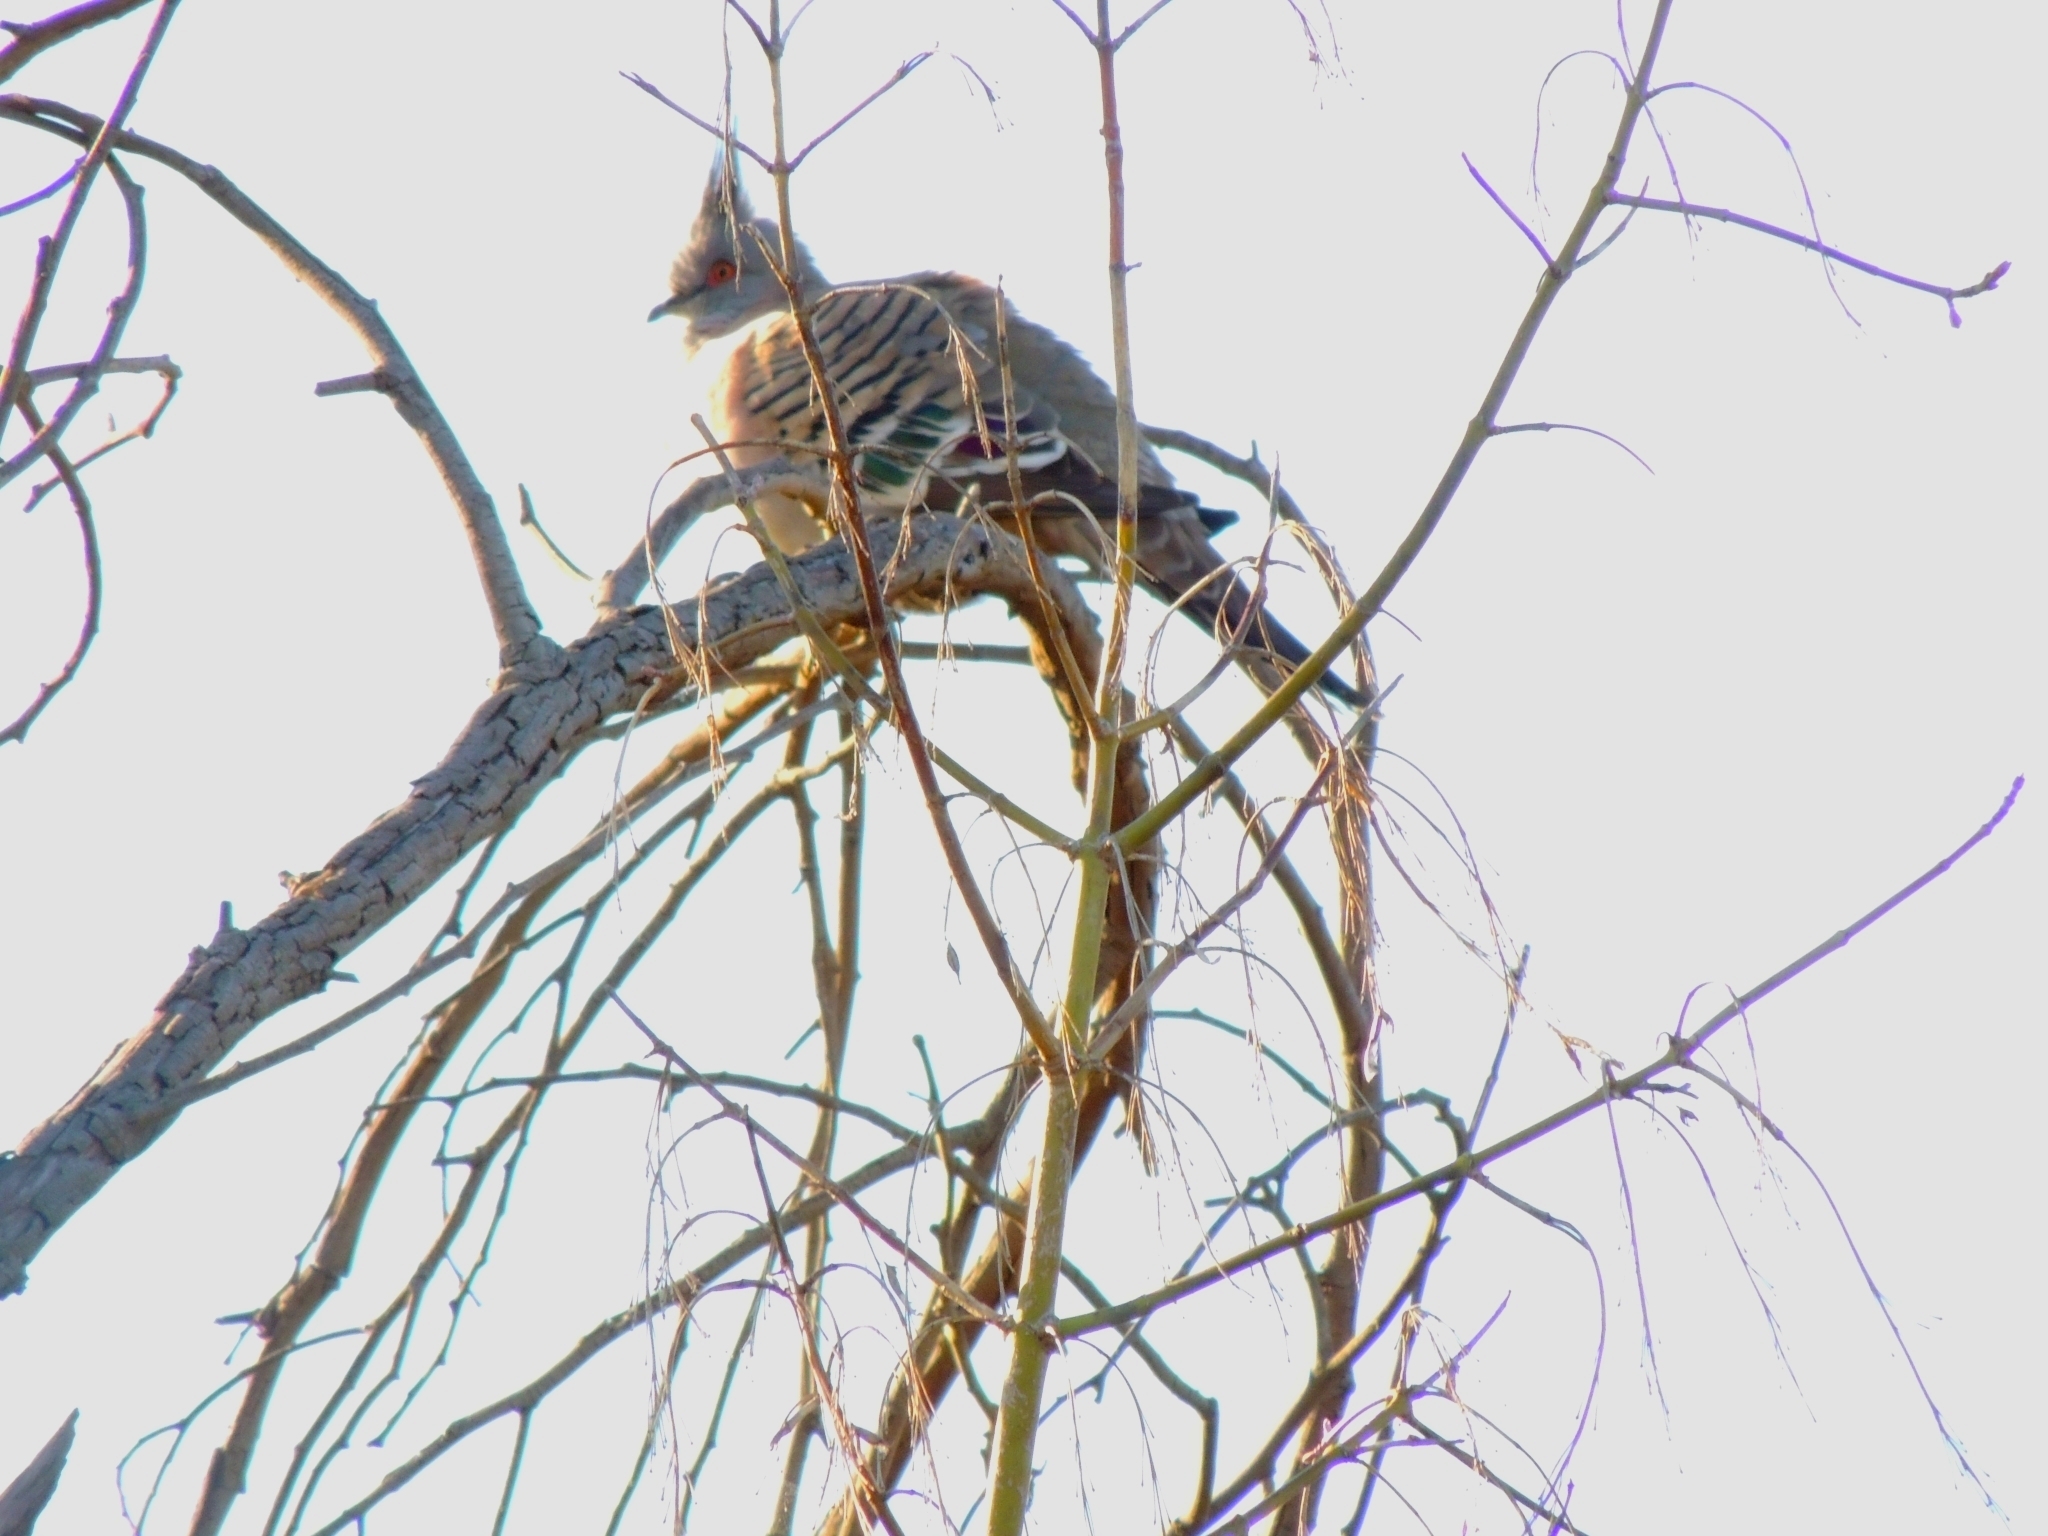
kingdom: Animalia
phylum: Chordata
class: Aves
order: Columbiformes
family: Columbidae
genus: Ocyphaps
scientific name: Ocyphaps lophotes
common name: Crested pigeon
